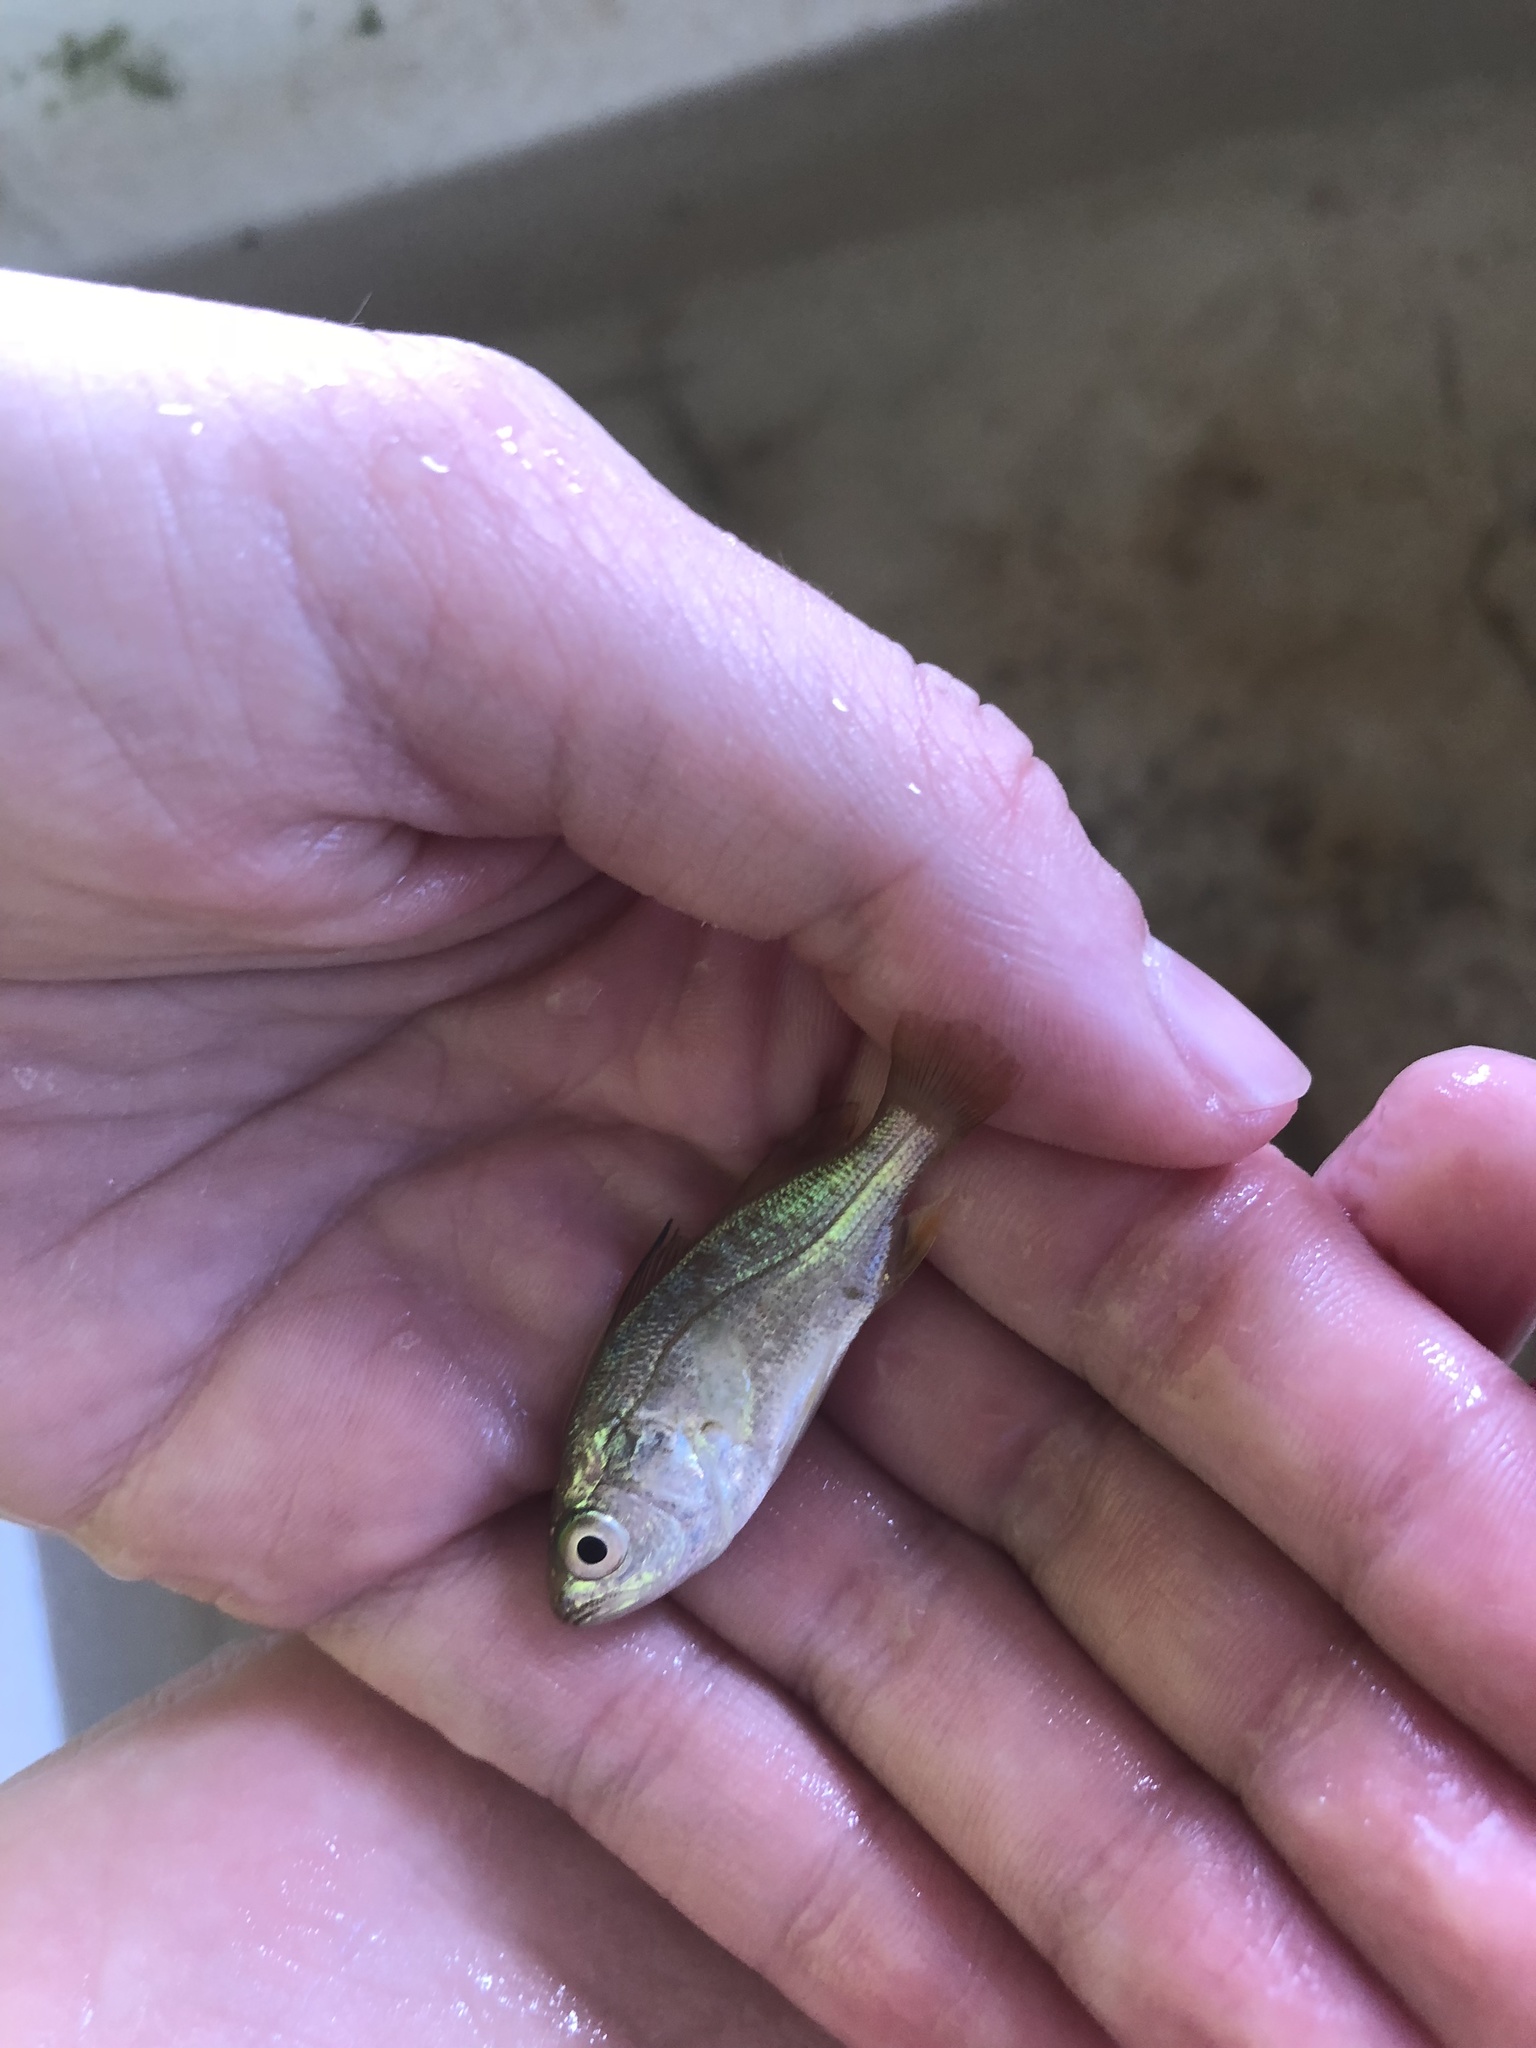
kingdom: Animalia
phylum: Chordata
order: Perciformes
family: Sciaenidae
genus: Bairdiella
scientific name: Bairdiella chrysoura
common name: Silver perch
